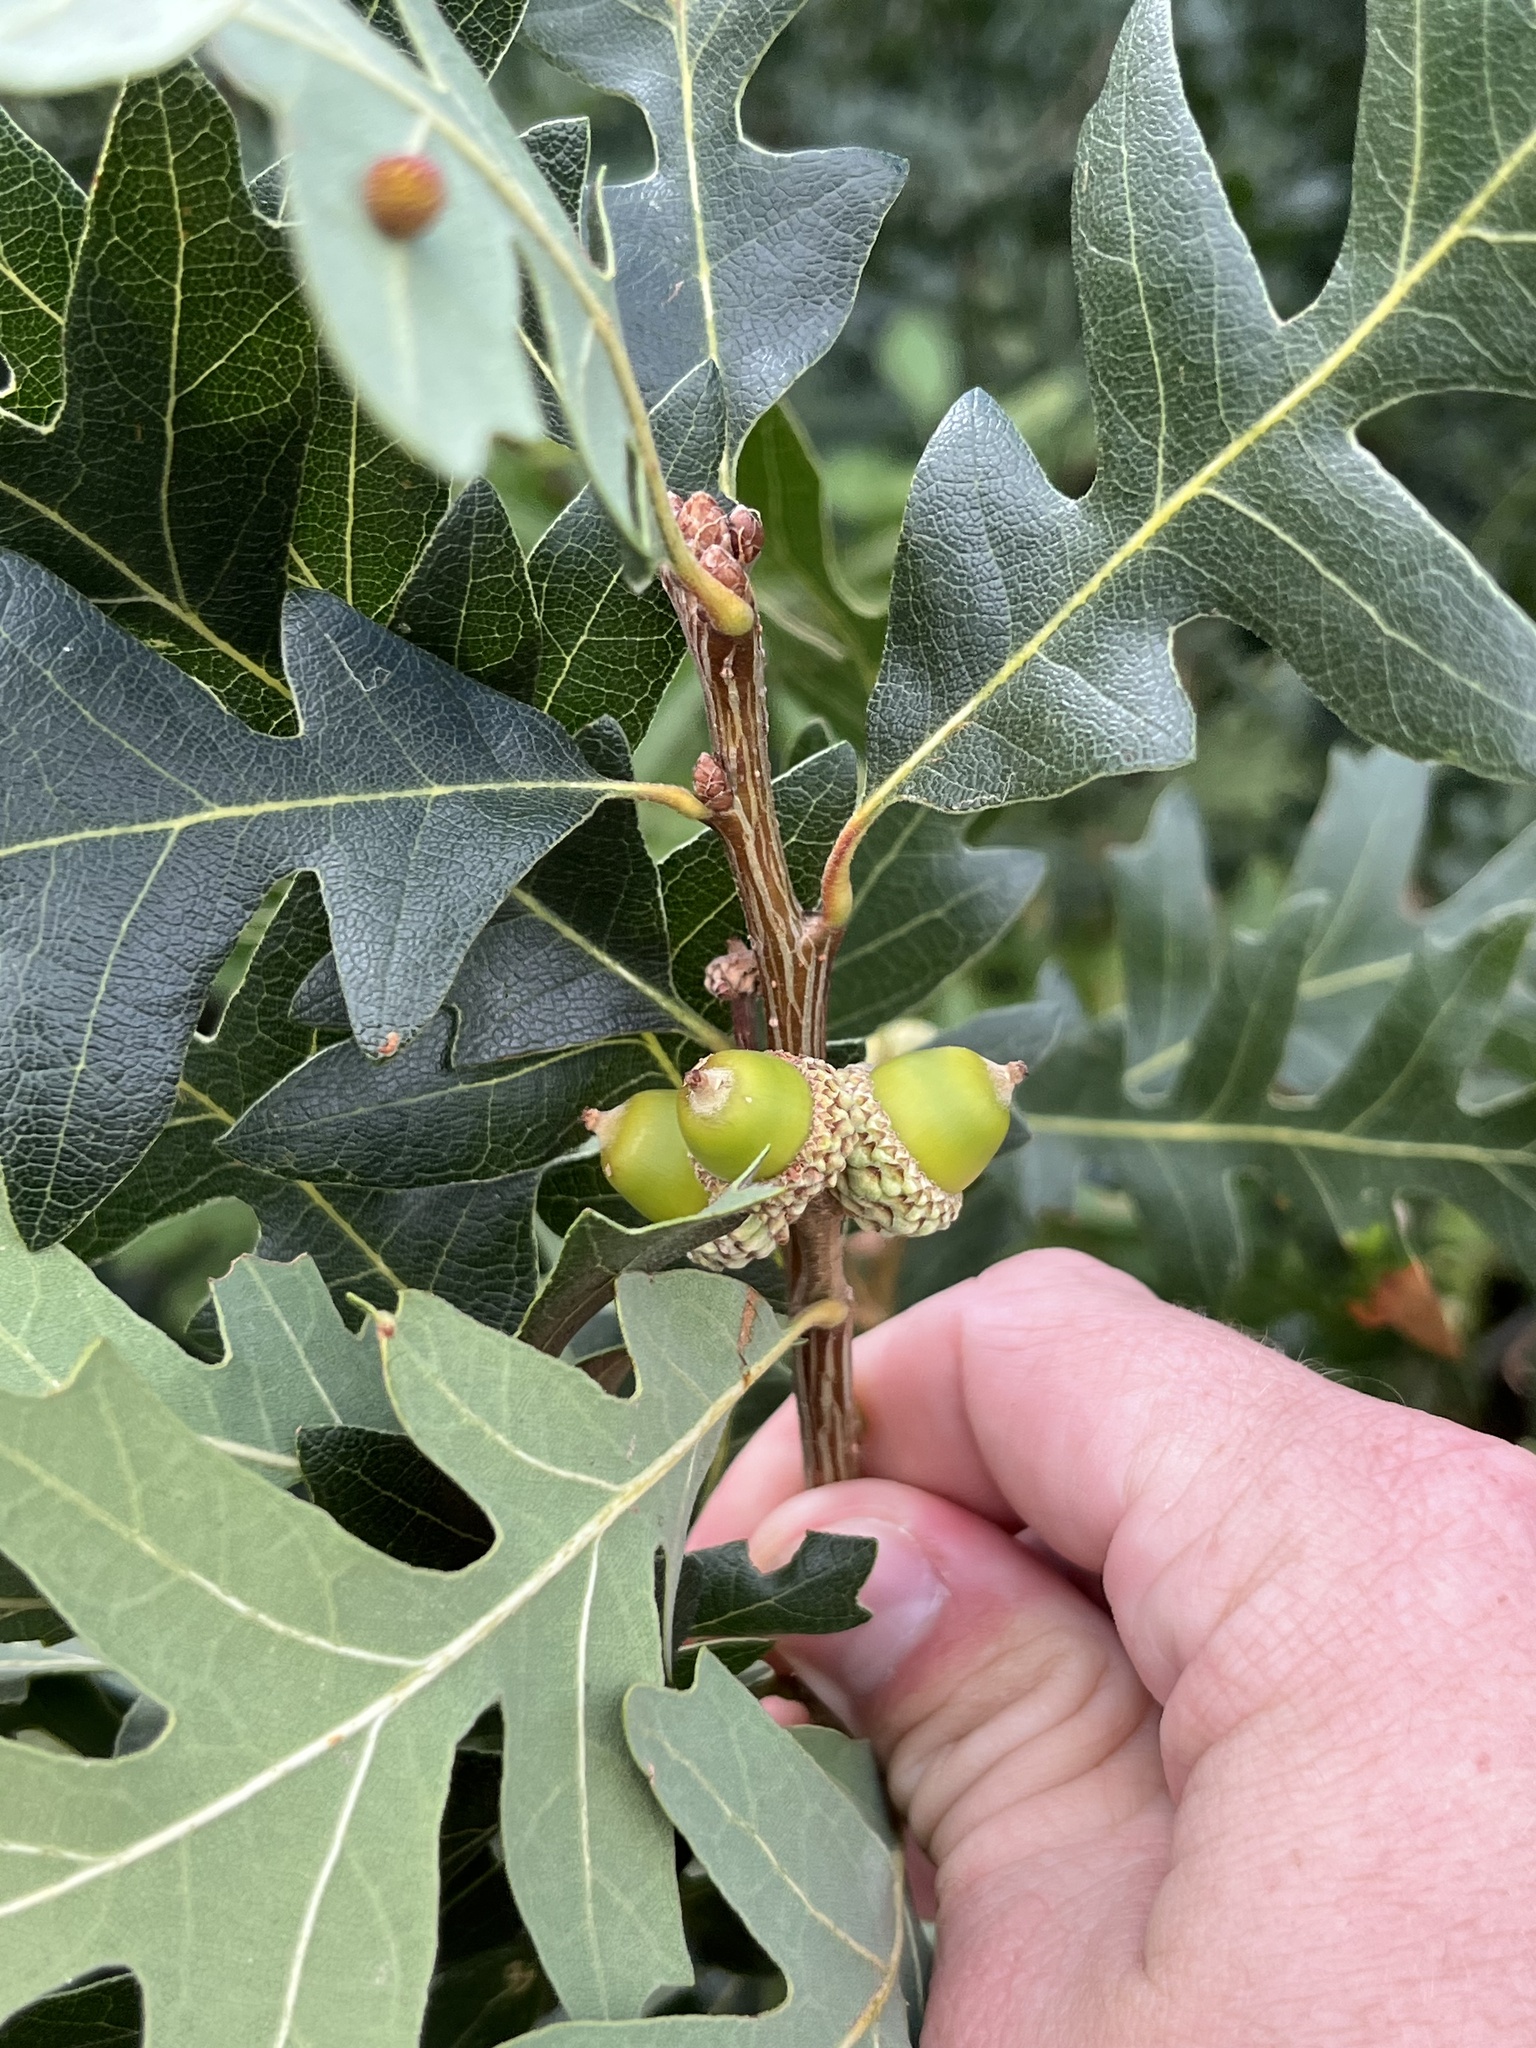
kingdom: Plantae
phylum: Tracheophyta
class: Magnoliopsida
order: Fagales
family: Fagaceae
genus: Quercus
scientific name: Quercus gambelii
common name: Gambel oak
